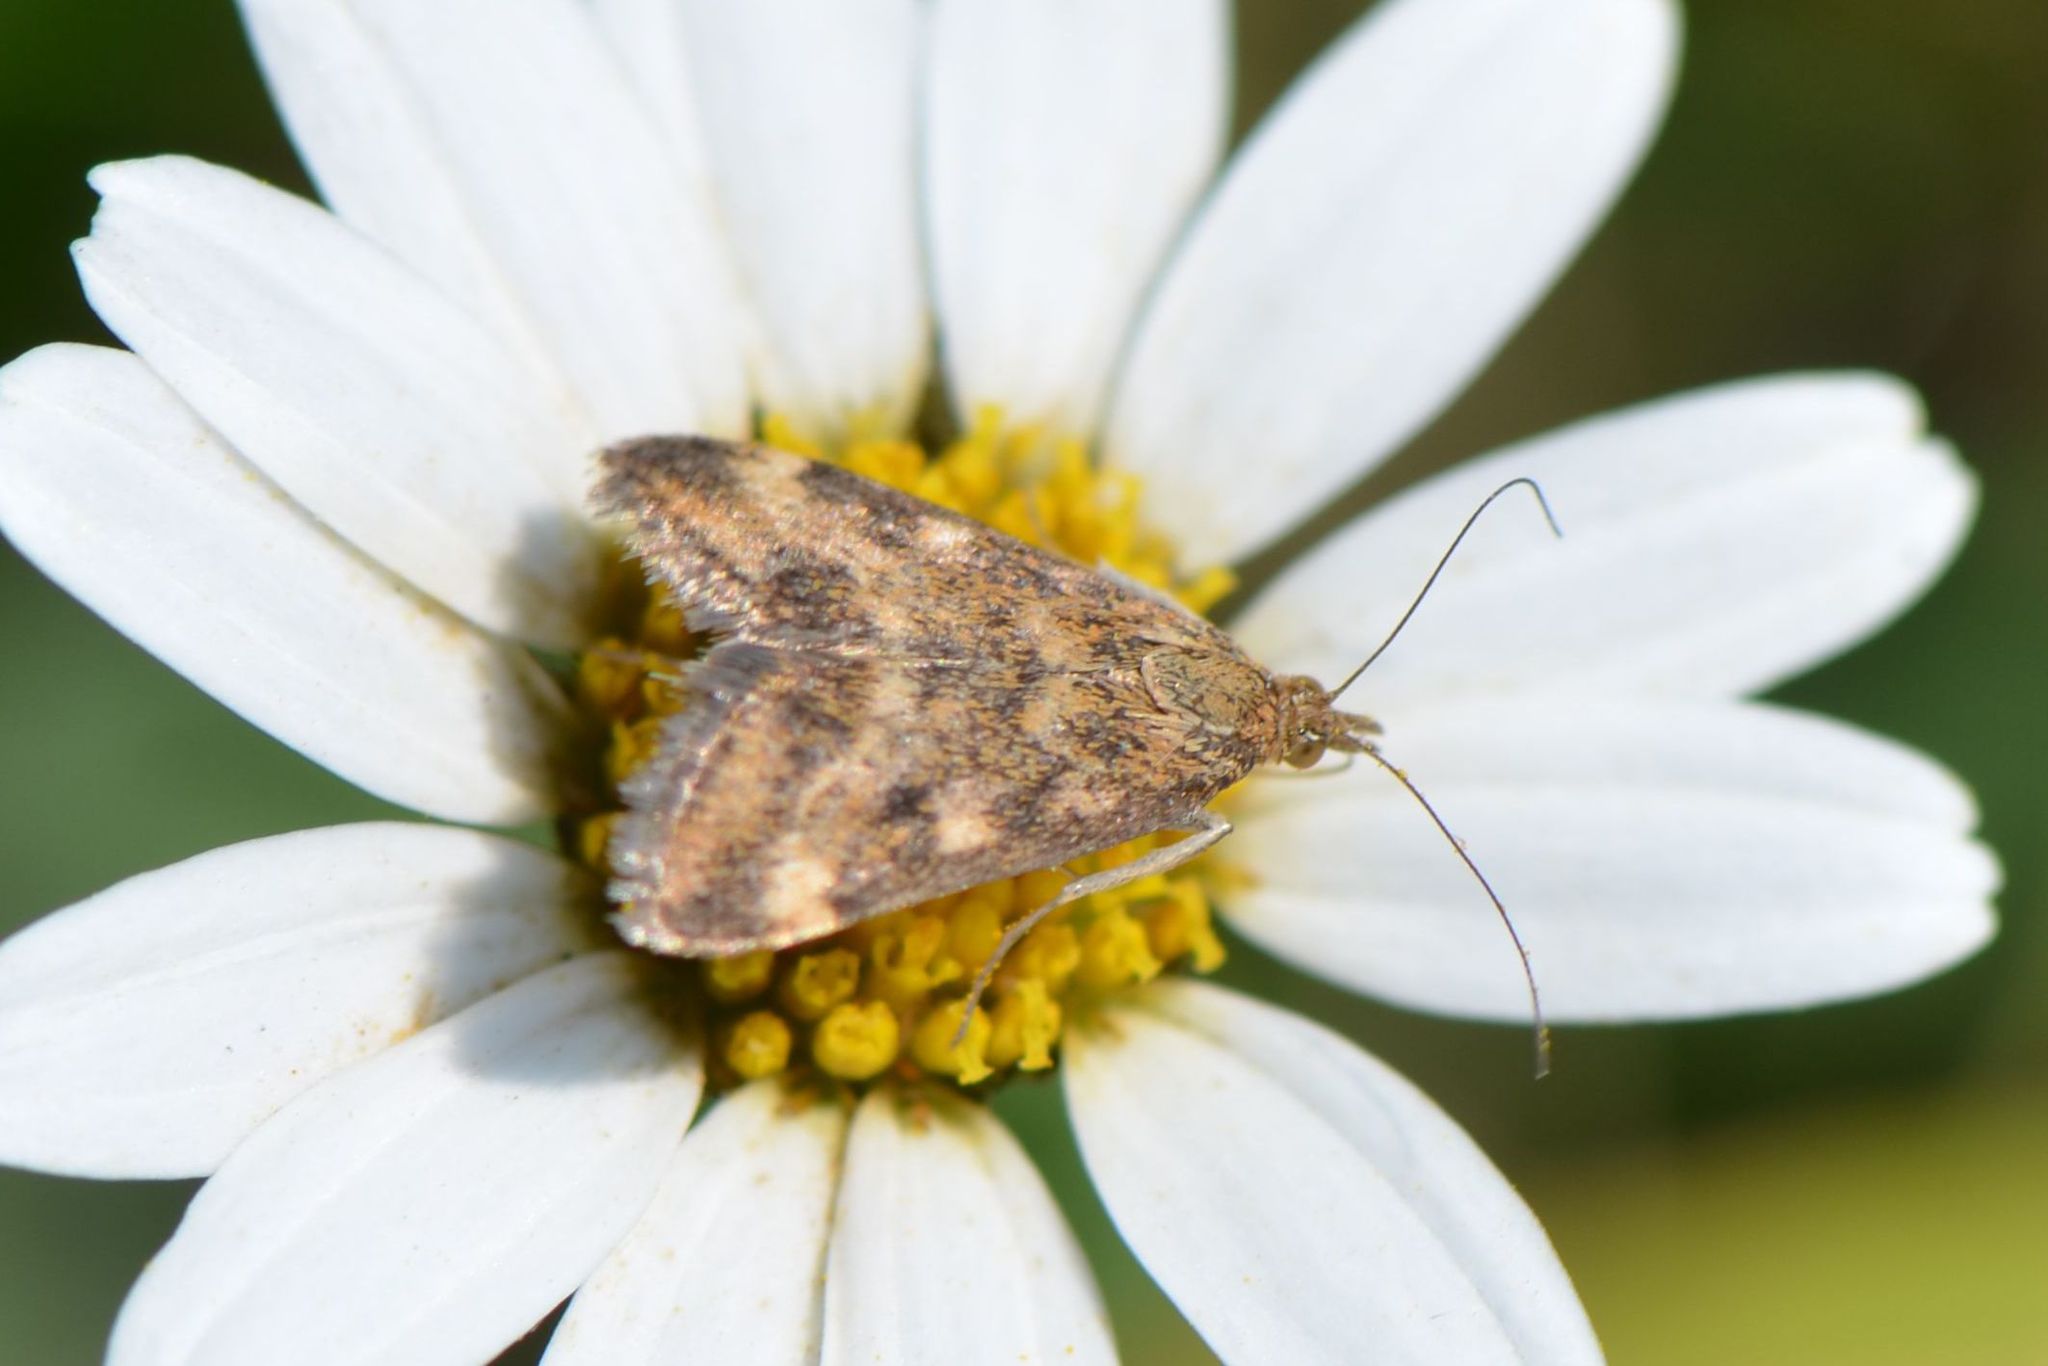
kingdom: Animalia
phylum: Arthropoda
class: Insecta
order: Lepidoptera
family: Crambidae
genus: Pyrausta
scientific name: Pyrausta despicata
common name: Straw-barred pearl
